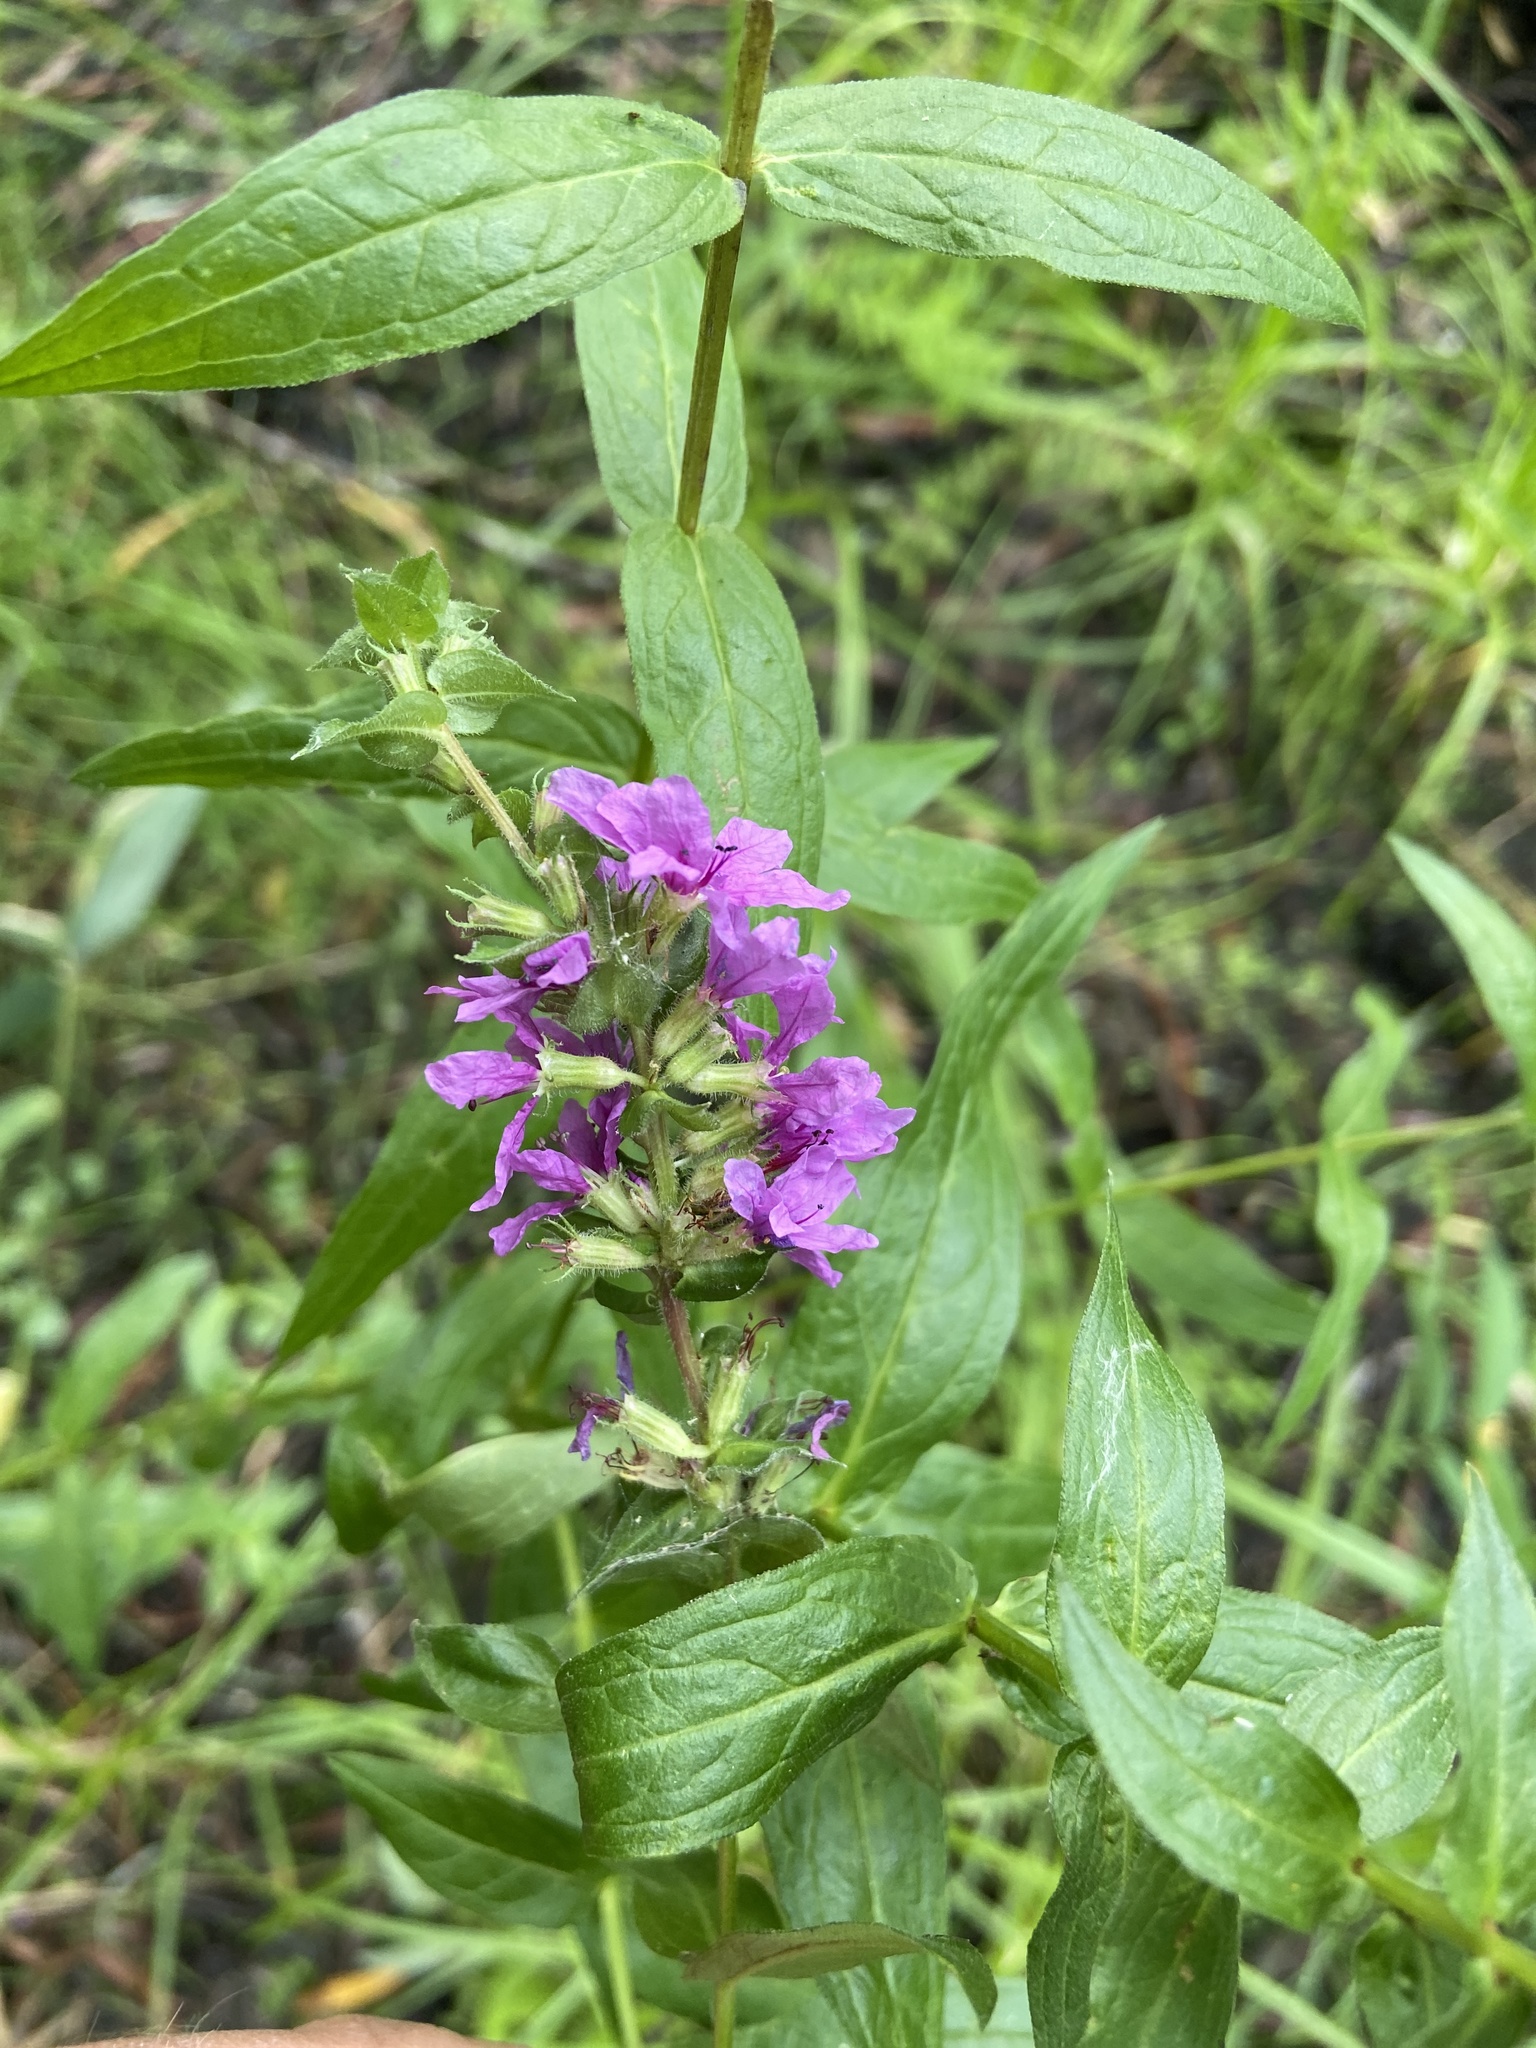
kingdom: Plantae
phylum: Tracheophyta
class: Magnoliopsida
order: Myrtales
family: Lythraceae
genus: Lythrum
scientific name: Lythrum salicaria
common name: Purple loosestrife
